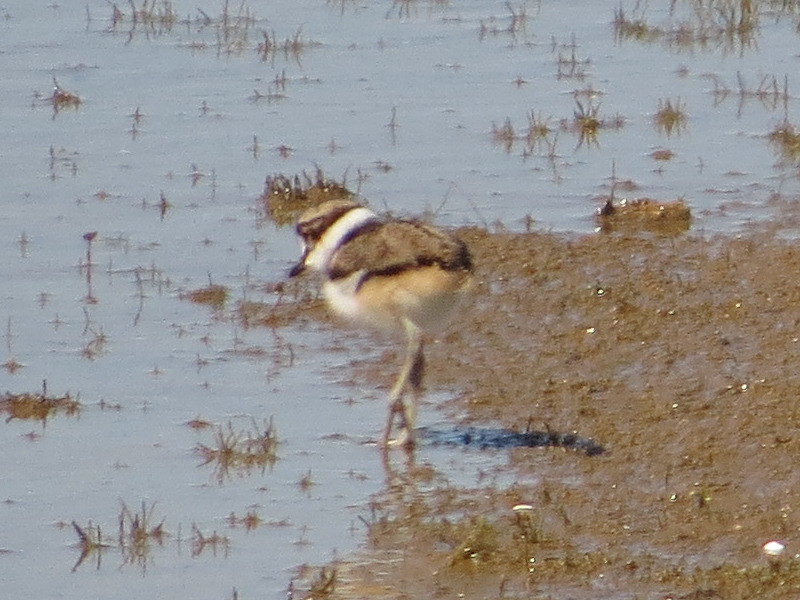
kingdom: Animalia
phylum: Chordata
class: Aves
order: Charadriiformes
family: Charadriidae
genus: Charadrius
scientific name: Charadrius vociferus
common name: Killdeer
